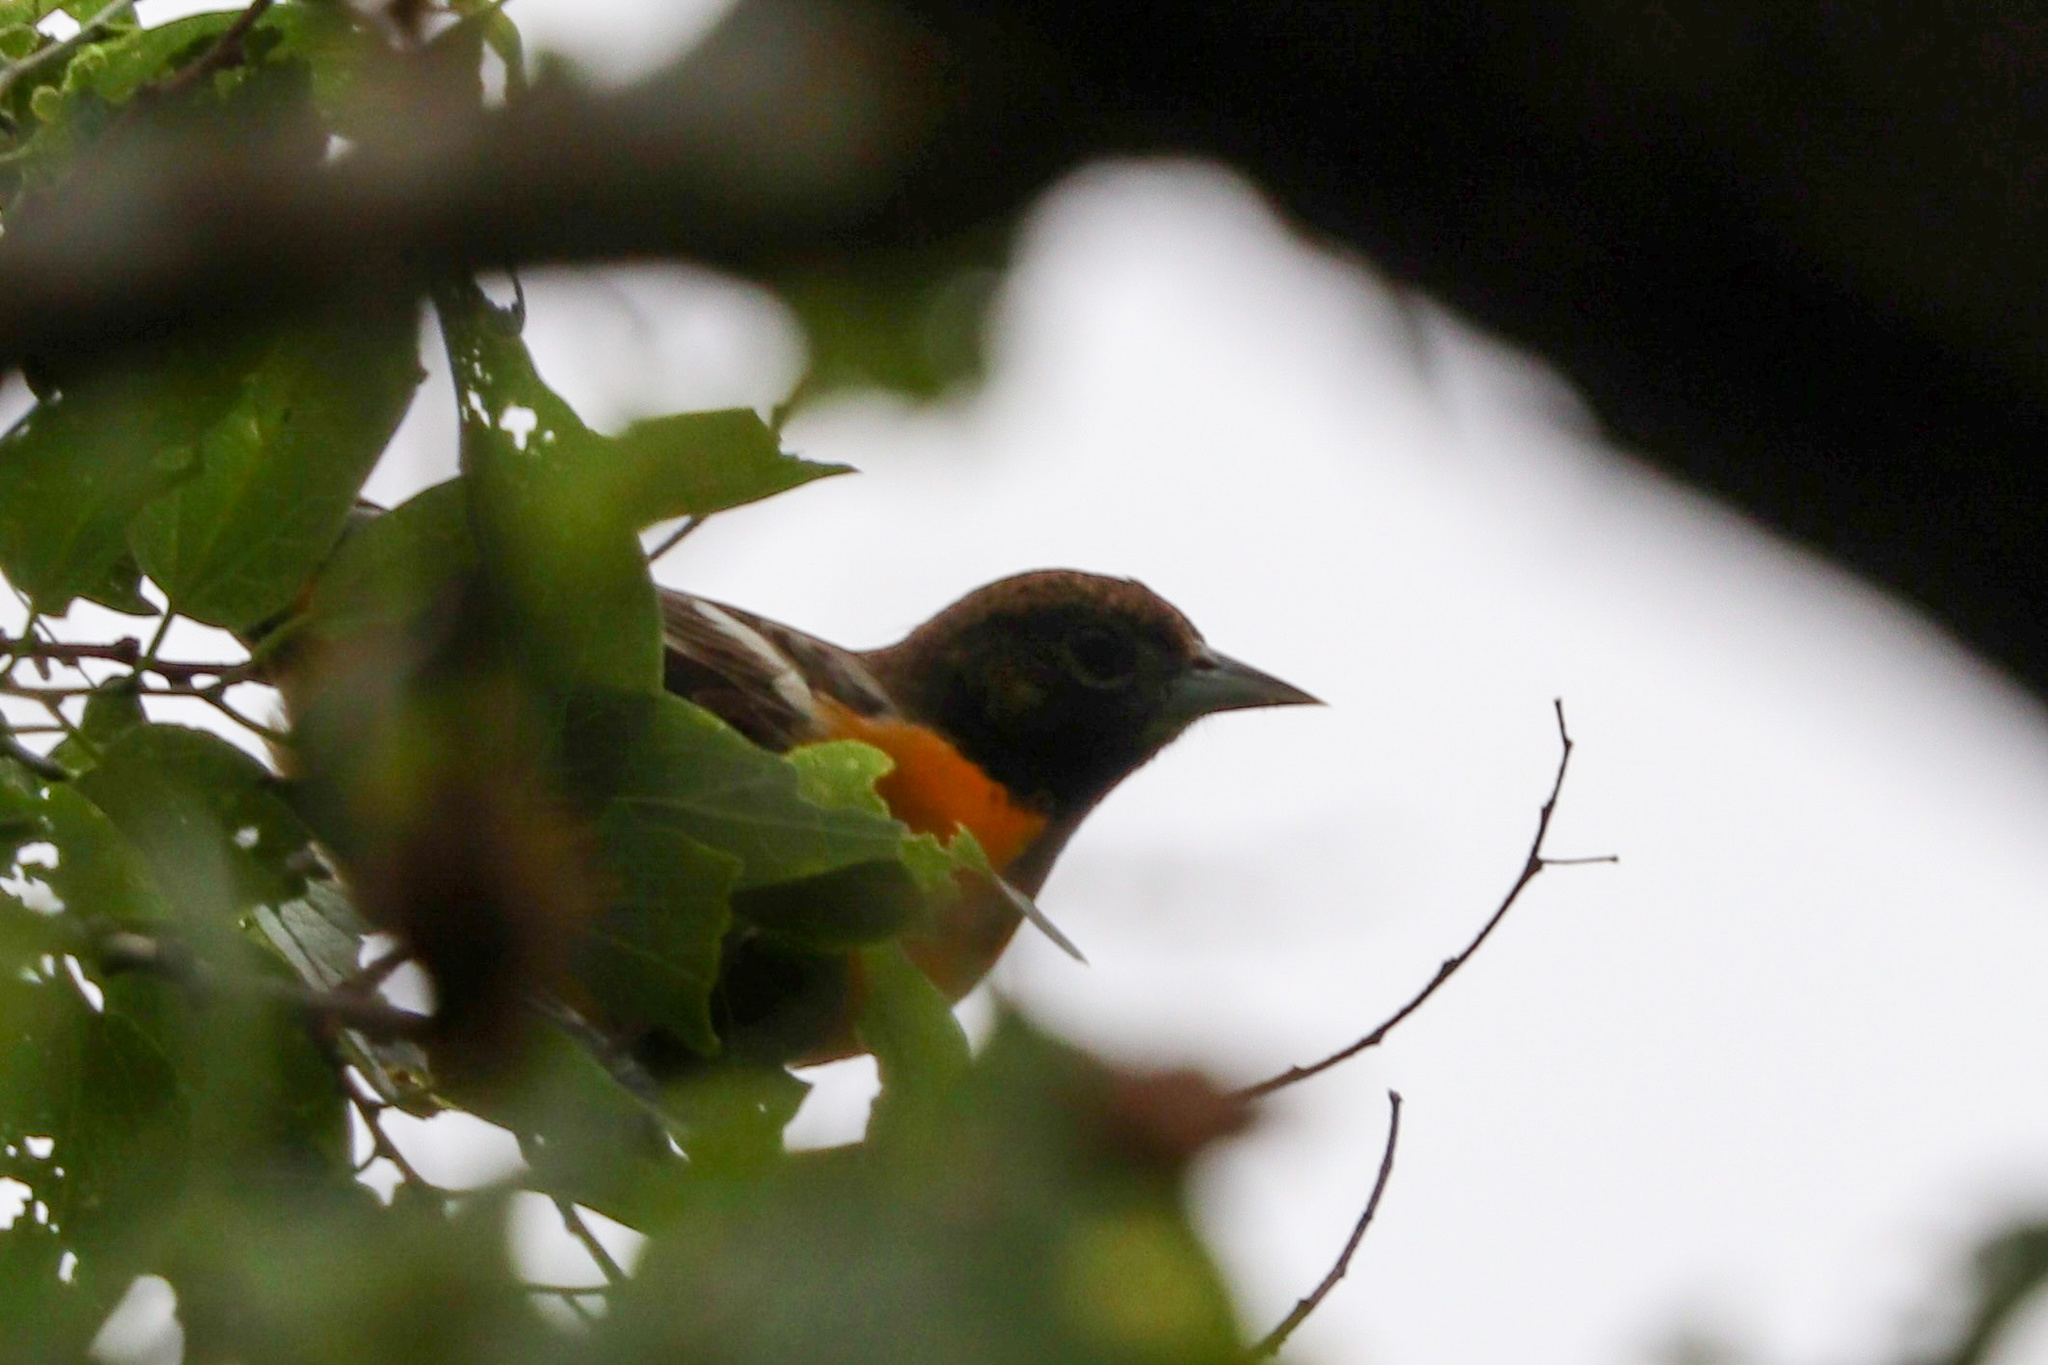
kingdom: Animalia
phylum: Chordata
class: Aves
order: Passeriformes
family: Icteridae
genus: Icterus
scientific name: Icterus galbula
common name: Baltimore oriole
